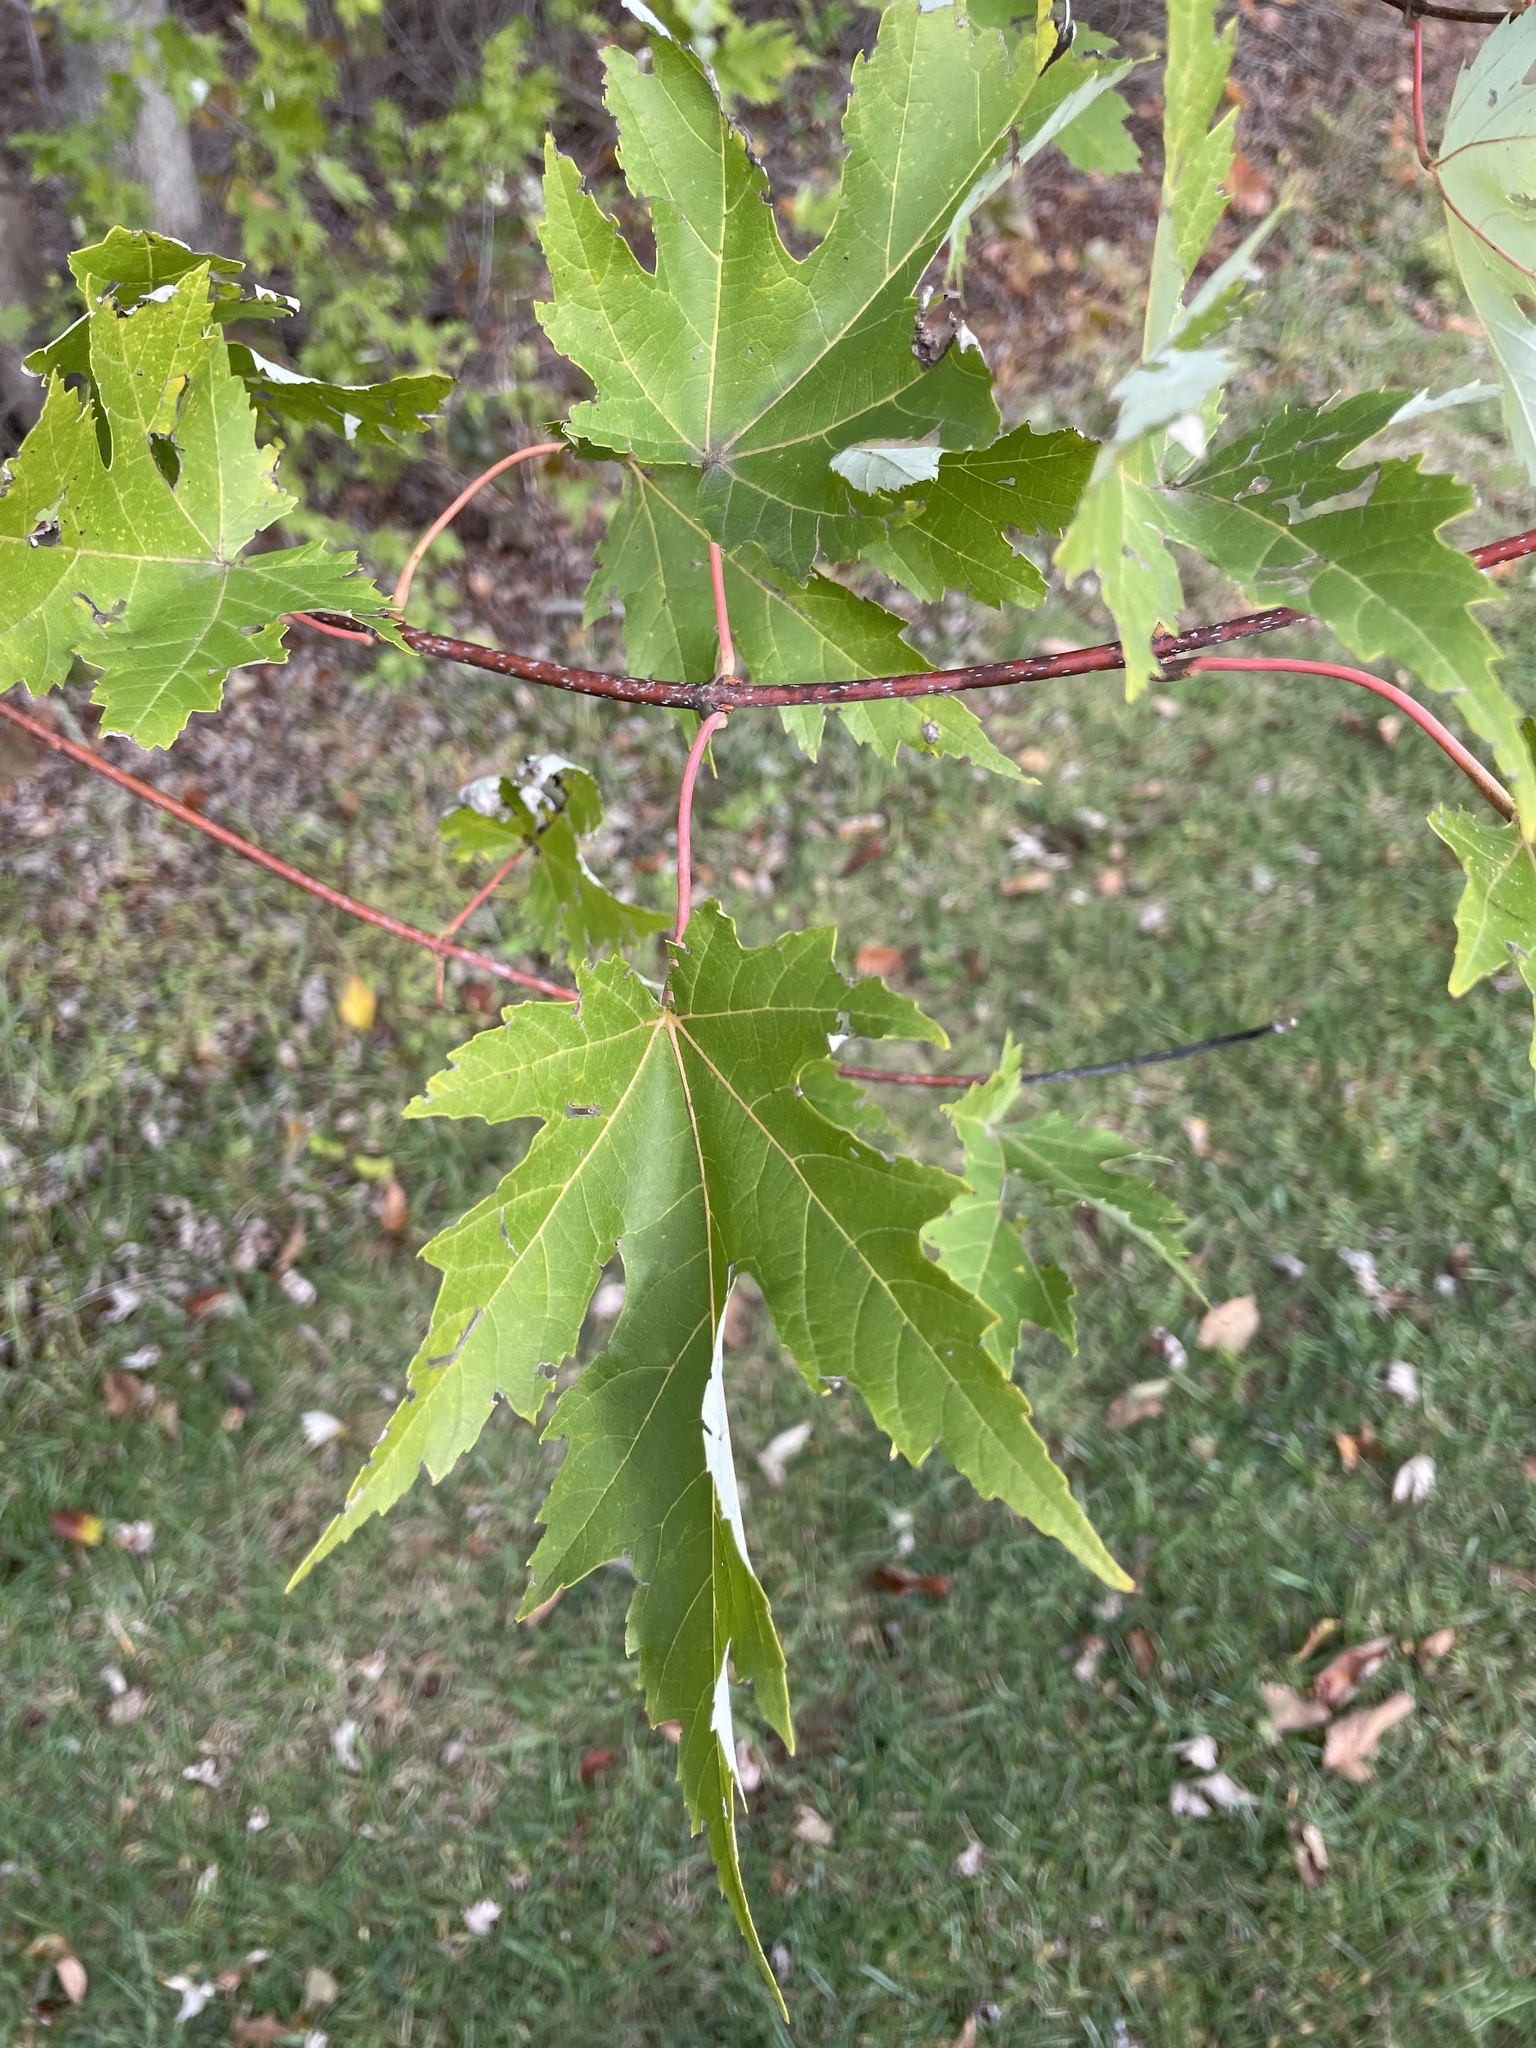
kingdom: Plantae
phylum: Tracheophyta
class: Magnoliopsida
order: Sapindales
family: Sapindaceae
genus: Acer
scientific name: Acer saccharinum
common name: Silver maple
